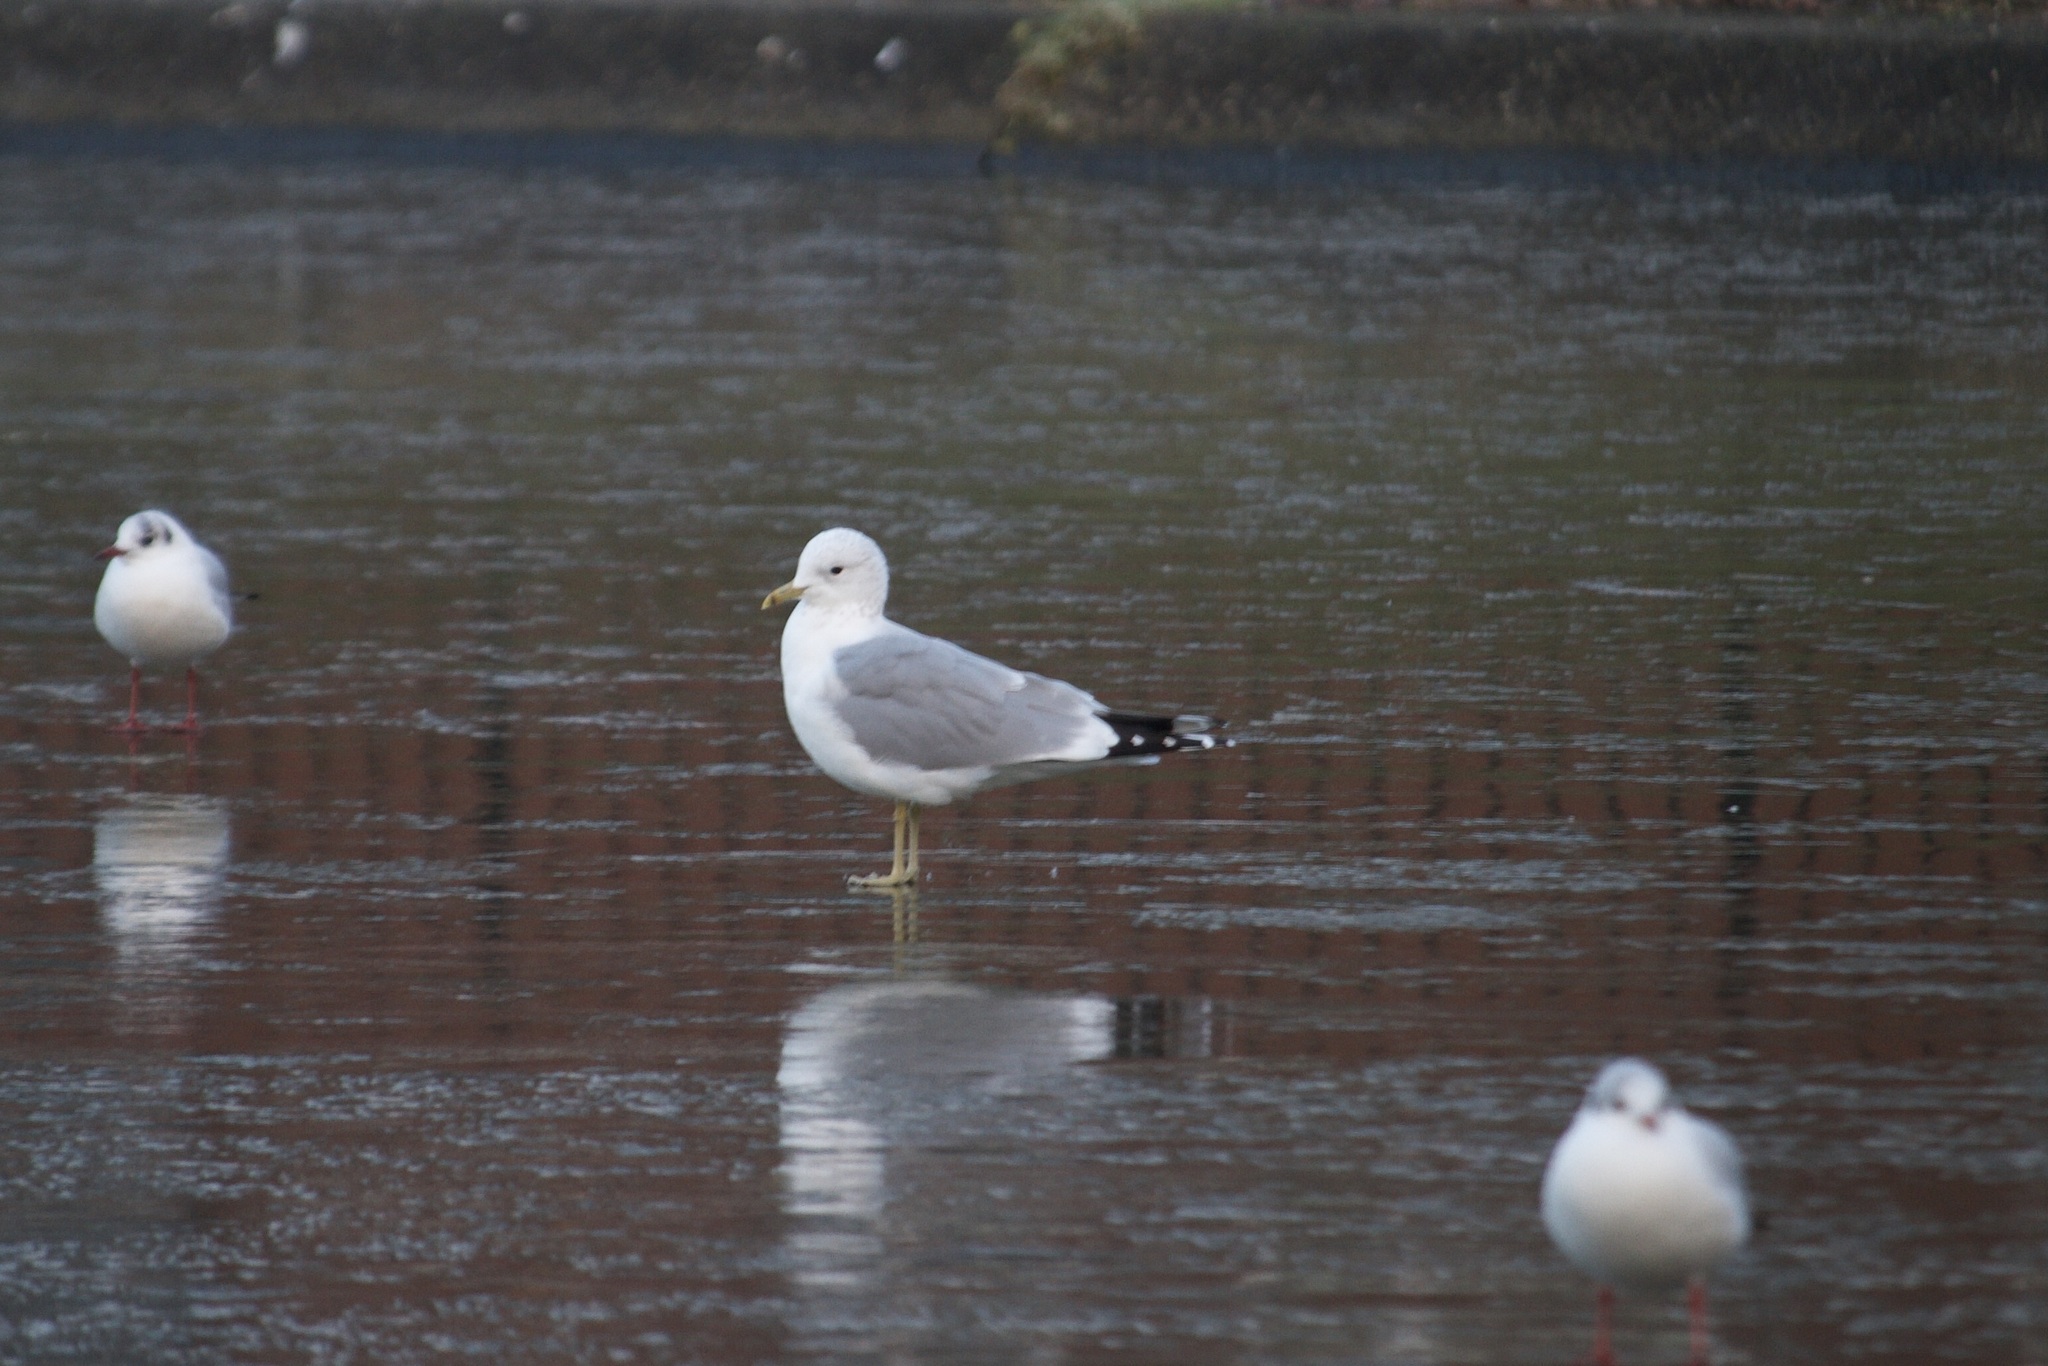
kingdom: Animalia
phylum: Chordata
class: Aves
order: Charadriiformes
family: Laridae
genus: Larus
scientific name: Larus canus
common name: Mew gull
